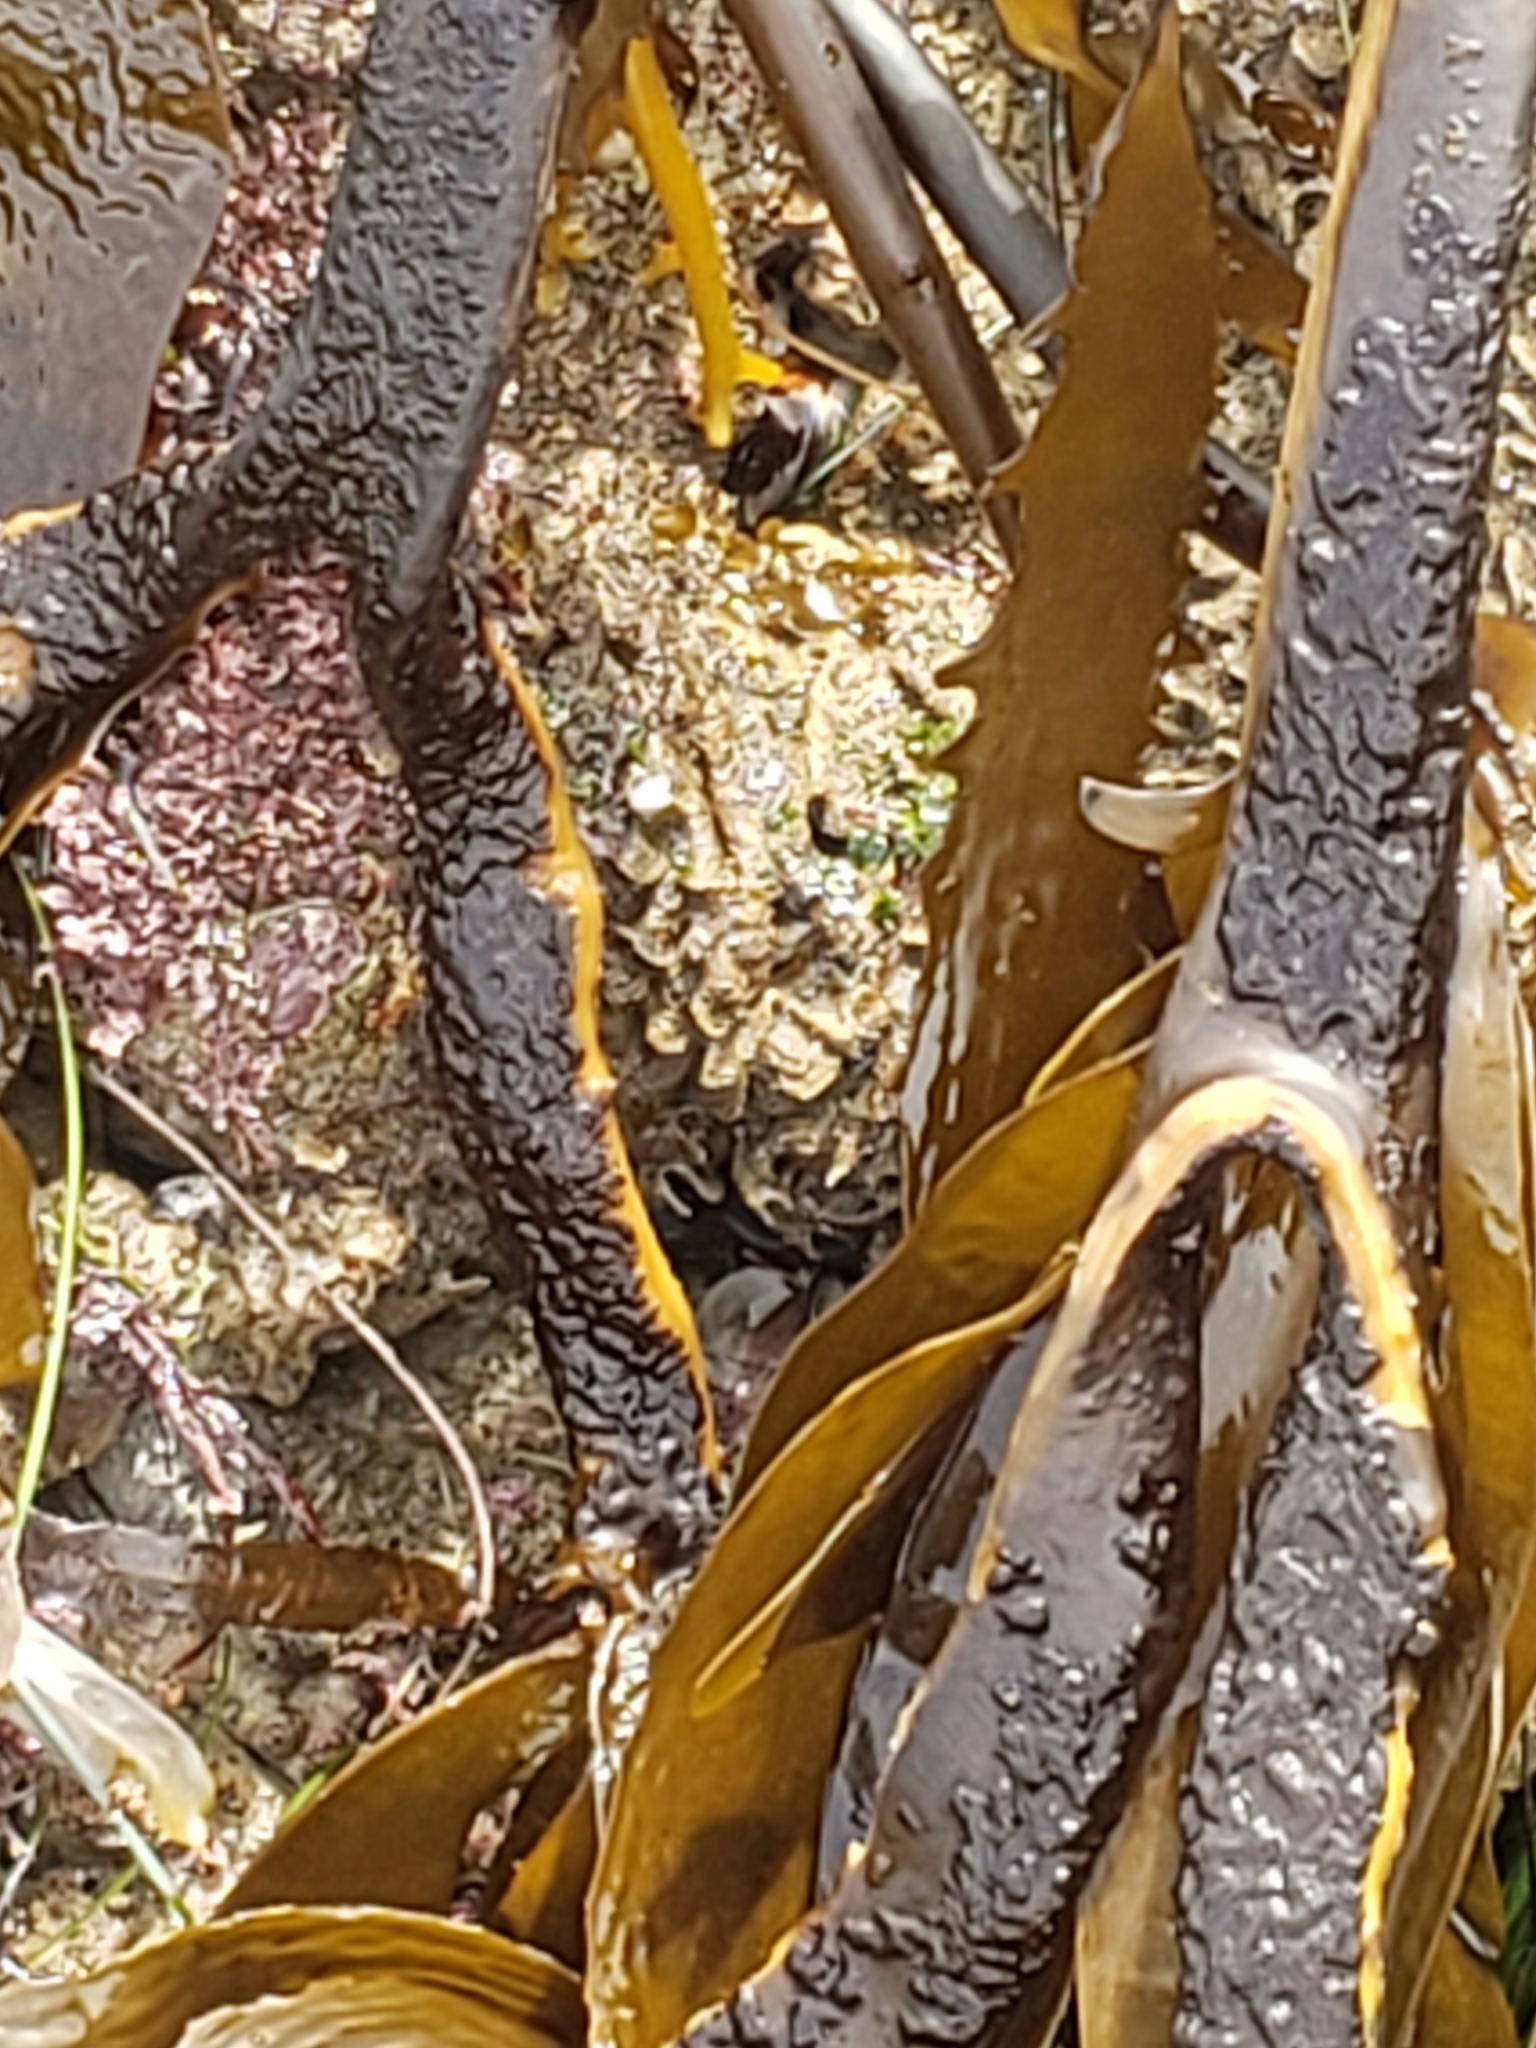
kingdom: Chromista
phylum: Ochrophyta
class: Phaeophyceae
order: Laminariales
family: Lessoniaceae
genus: Eisenia
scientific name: Eisenia arborea
